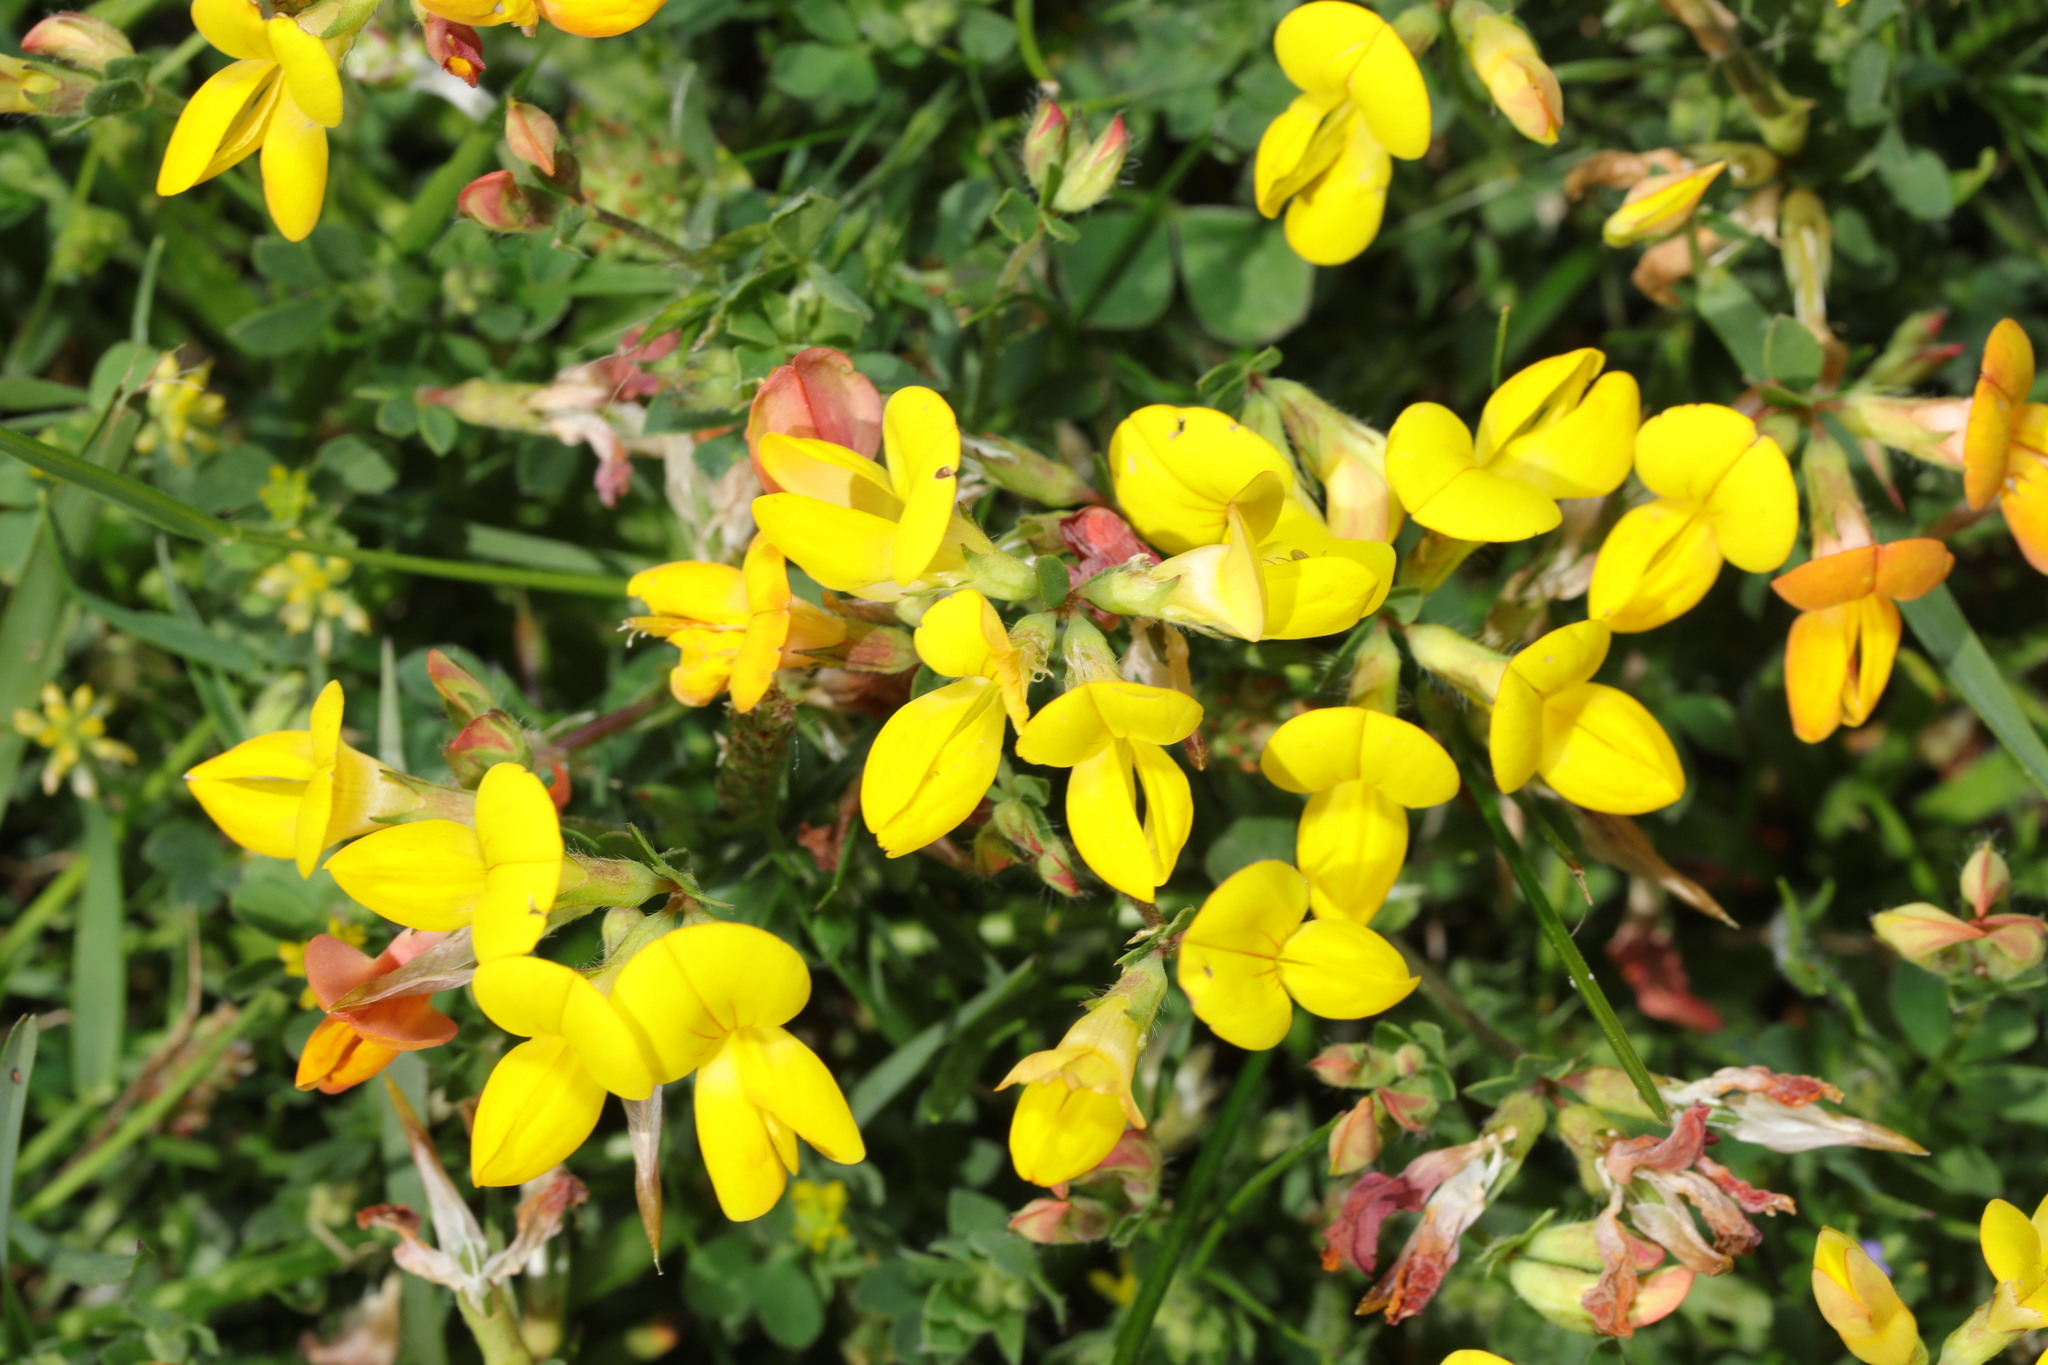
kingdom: Plantae
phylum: Tracheophyta
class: Magnoliopsida
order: Fabales
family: Fabaceae
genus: Lotus
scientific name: Lotus corniculatus
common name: Common bird's-foot-trefoil
